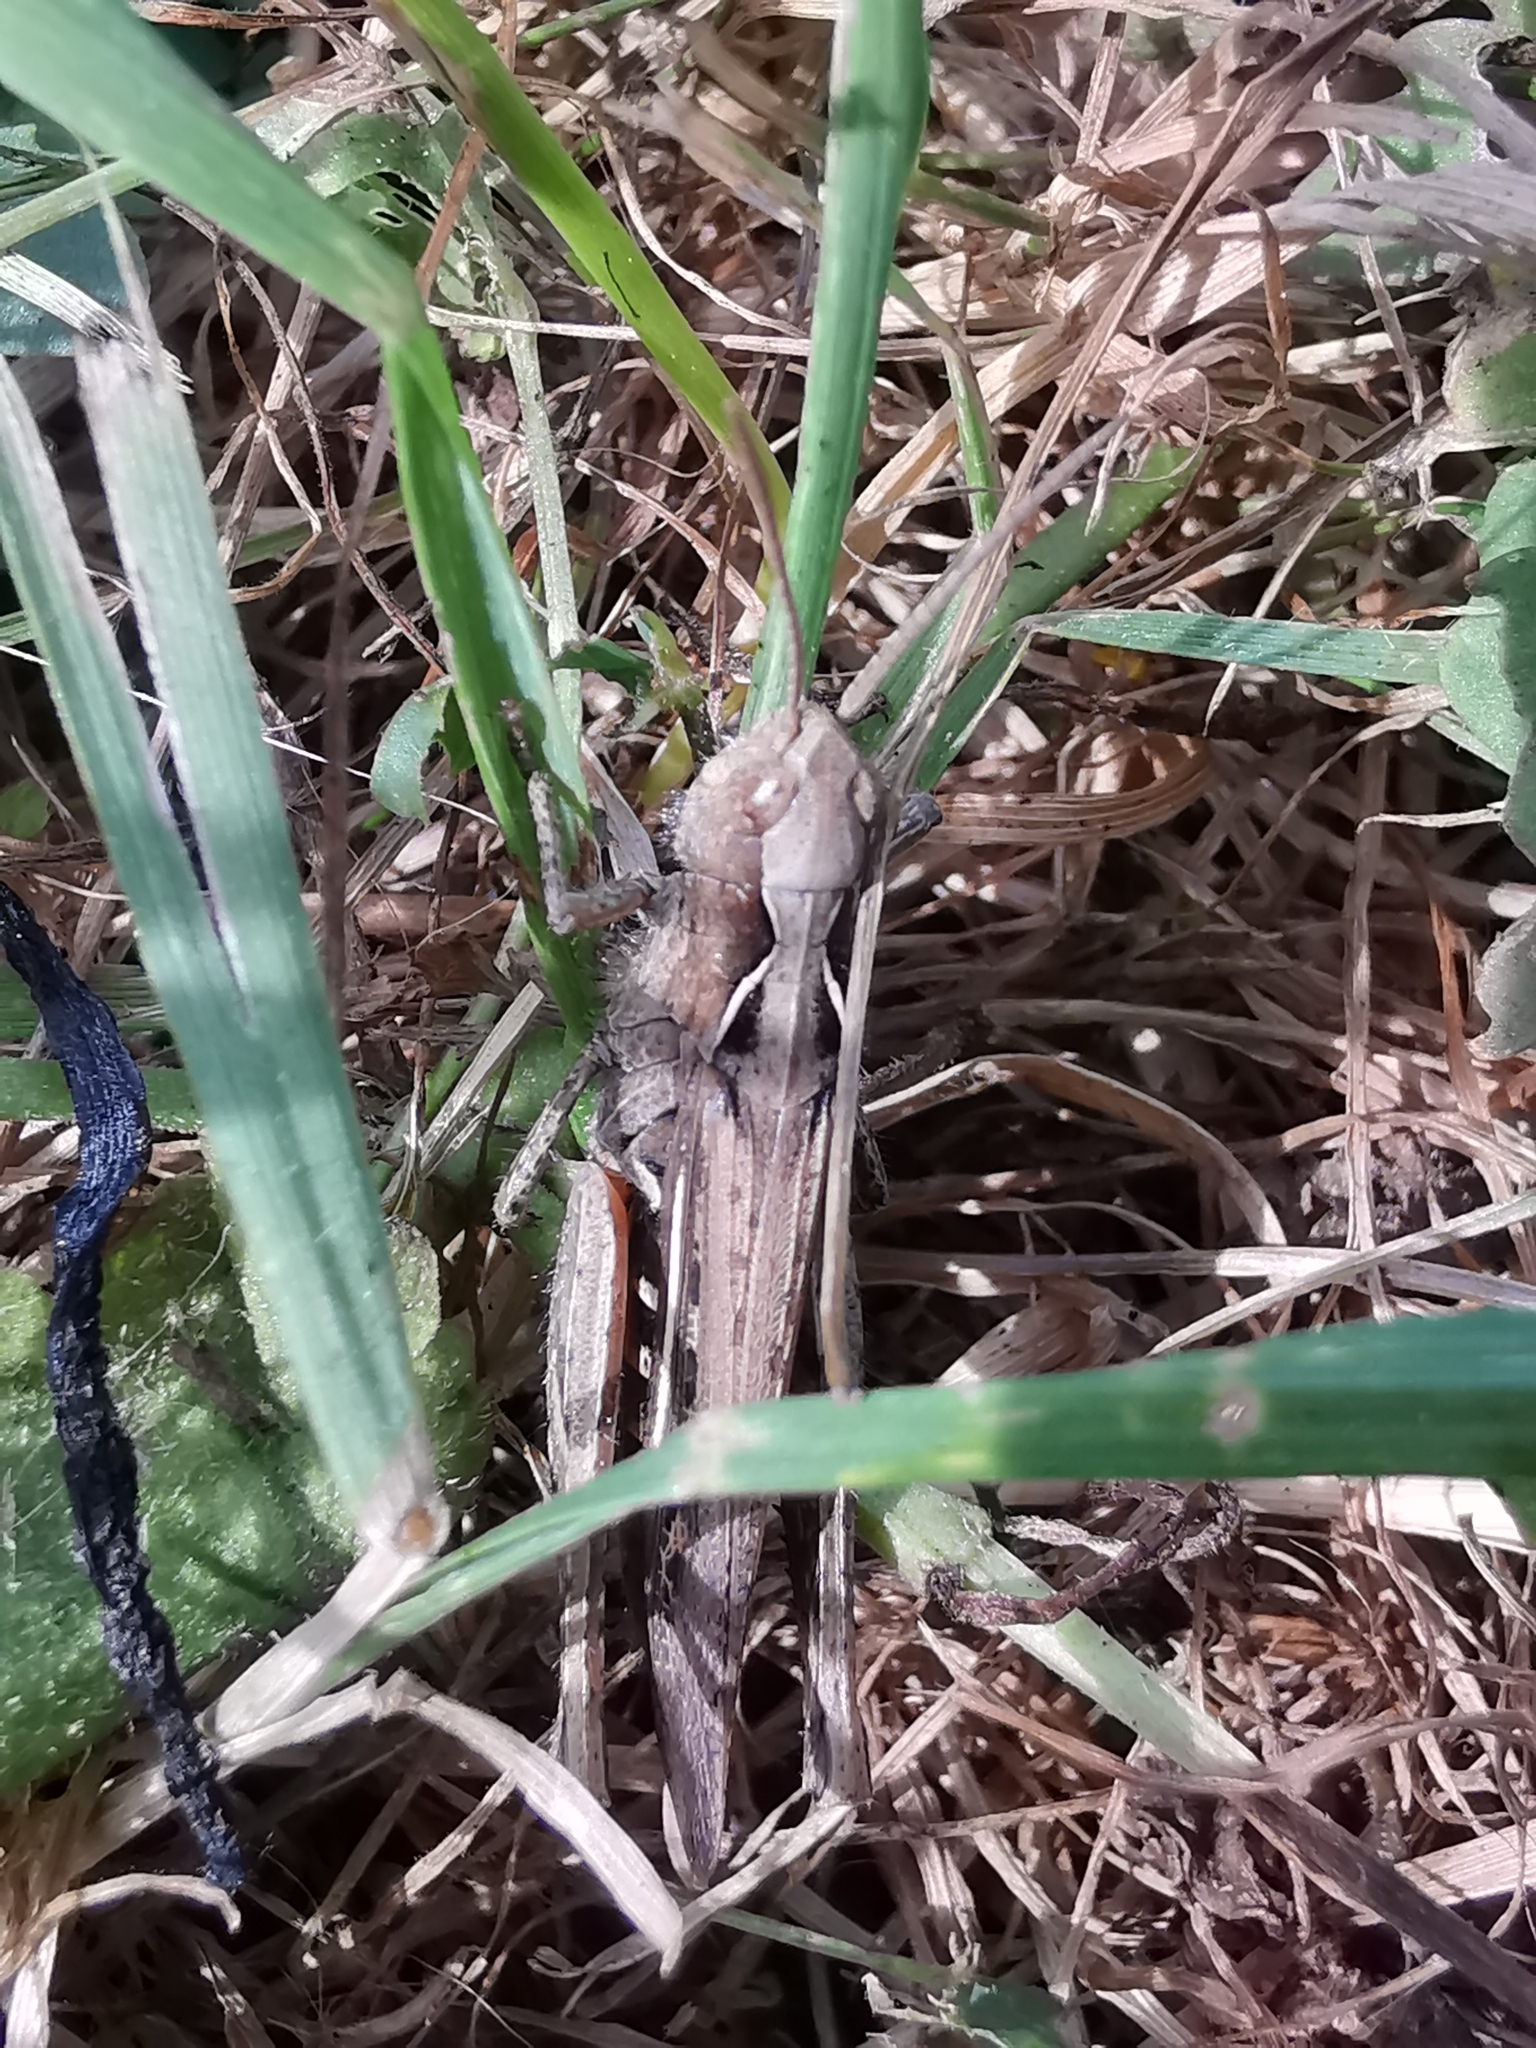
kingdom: Animalia
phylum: Arthropoda
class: Insecta
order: Orthoptera
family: Acrididae
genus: Chorthippus
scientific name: Chorthippus brunneus
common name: Field grasshopper
